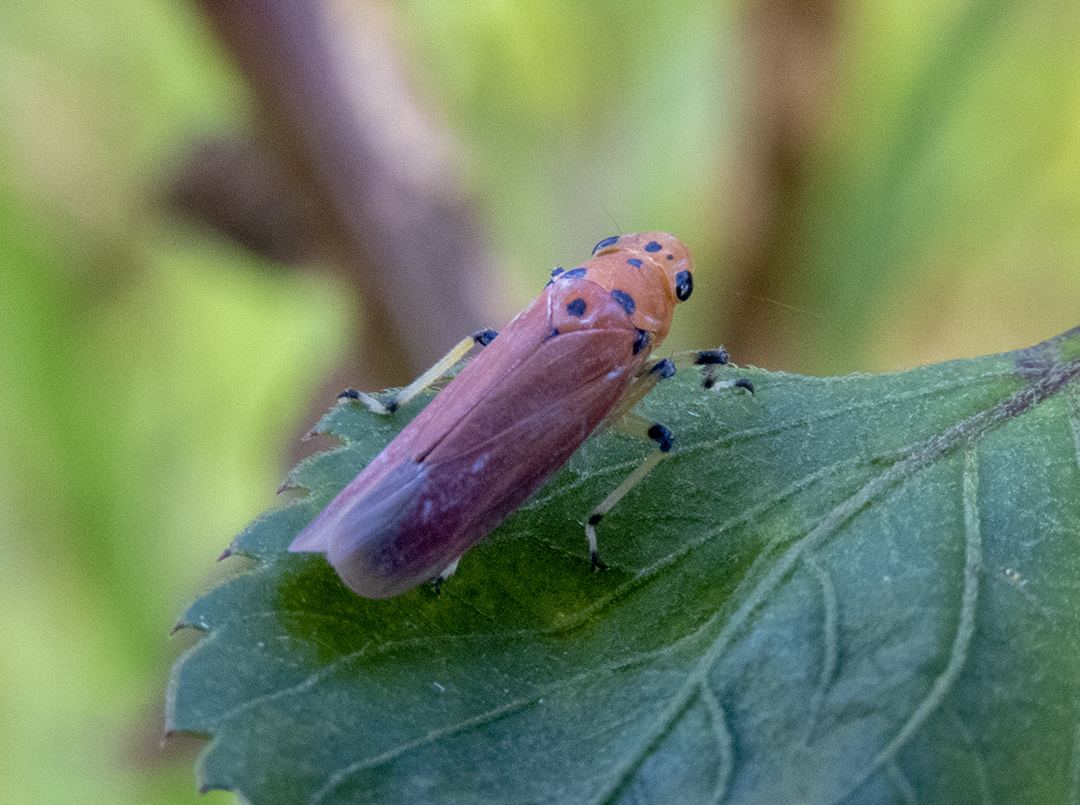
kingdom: Animalia
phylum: Arthropoda
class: Insecta
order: Hemiptera
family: Cicadellidae
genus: Bothrogonia
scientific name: Bothrogonia ferruginea
